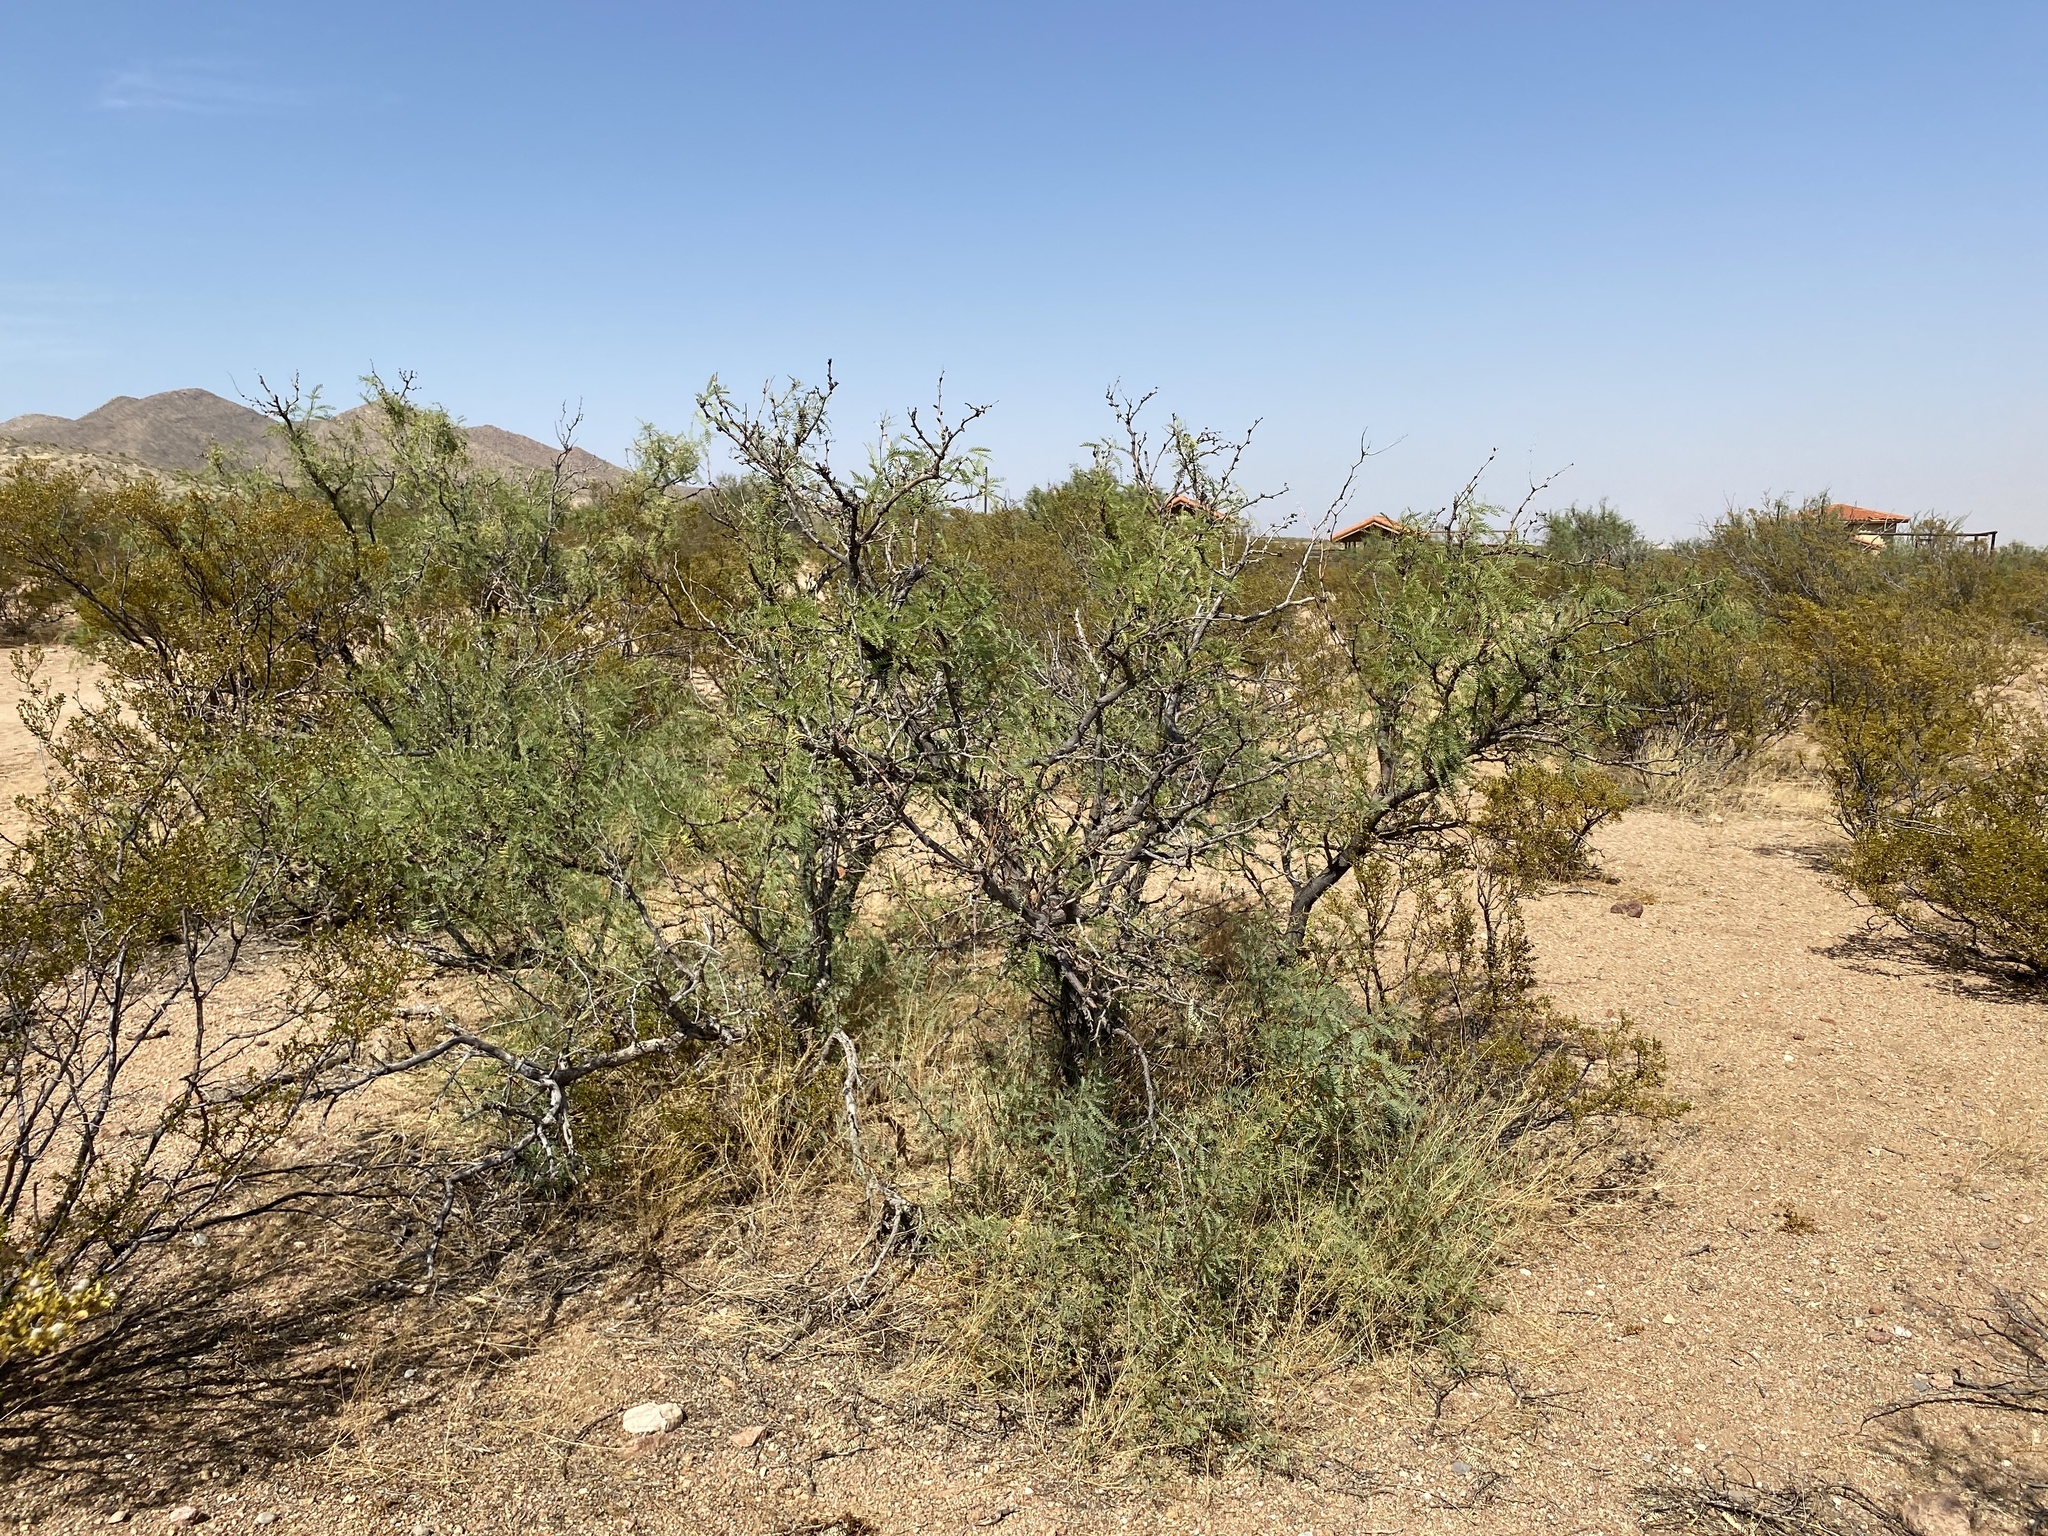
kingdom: Plantae
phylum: Tracheophyta
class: Magnoliopsida
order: Fabales
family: Fabaceae
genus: Prosopis
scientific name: Prosopis glandulosa
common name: Honey mesquite
